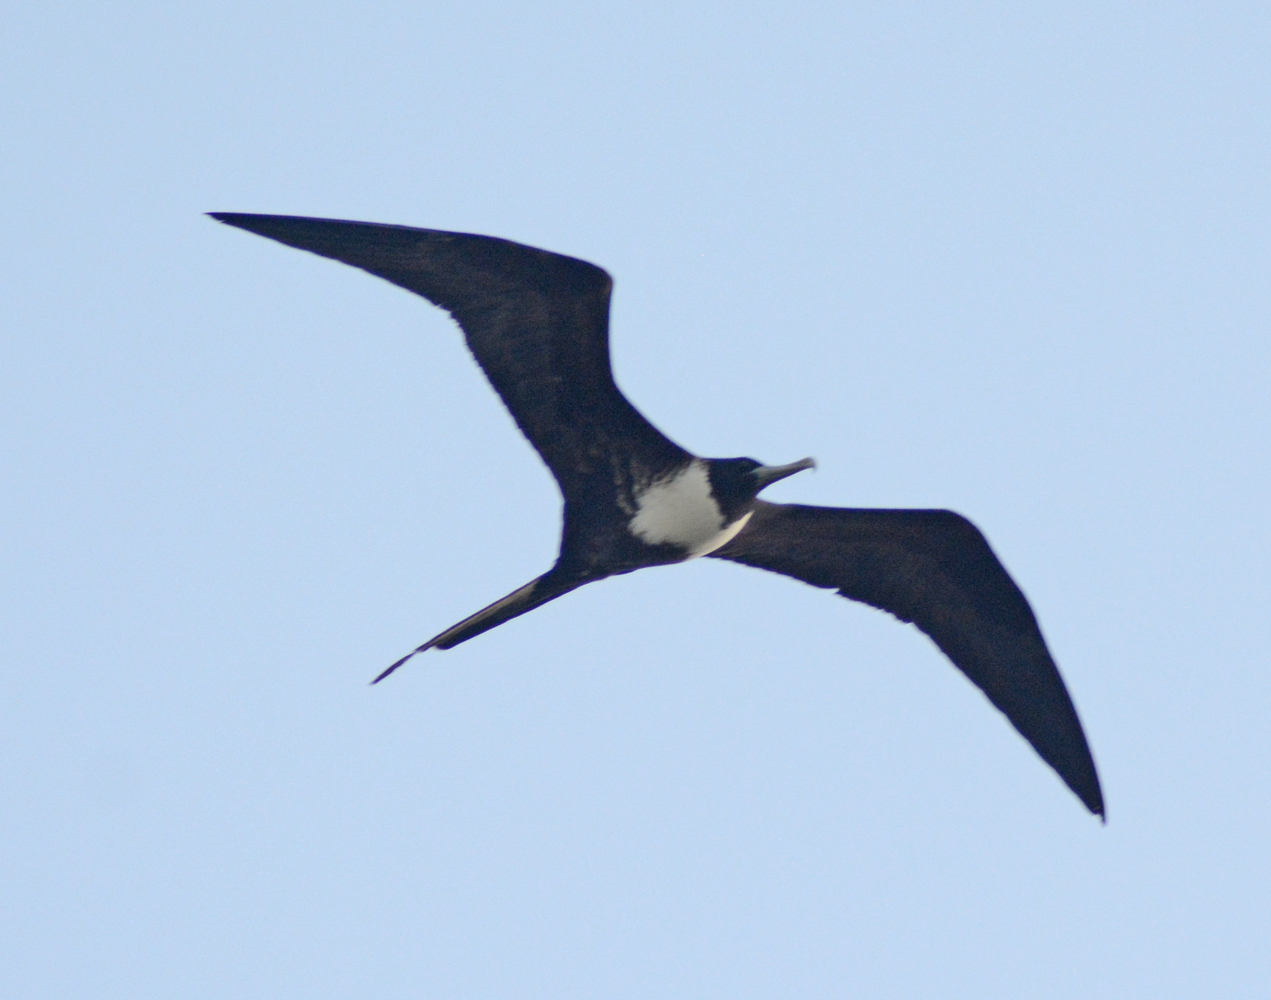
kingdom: Animalia
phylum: Chordata
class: Aves
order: Suliformes
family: Fregatidae
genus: Fregata
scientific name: Fregata magnificens
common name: Magnificent frigatebird
